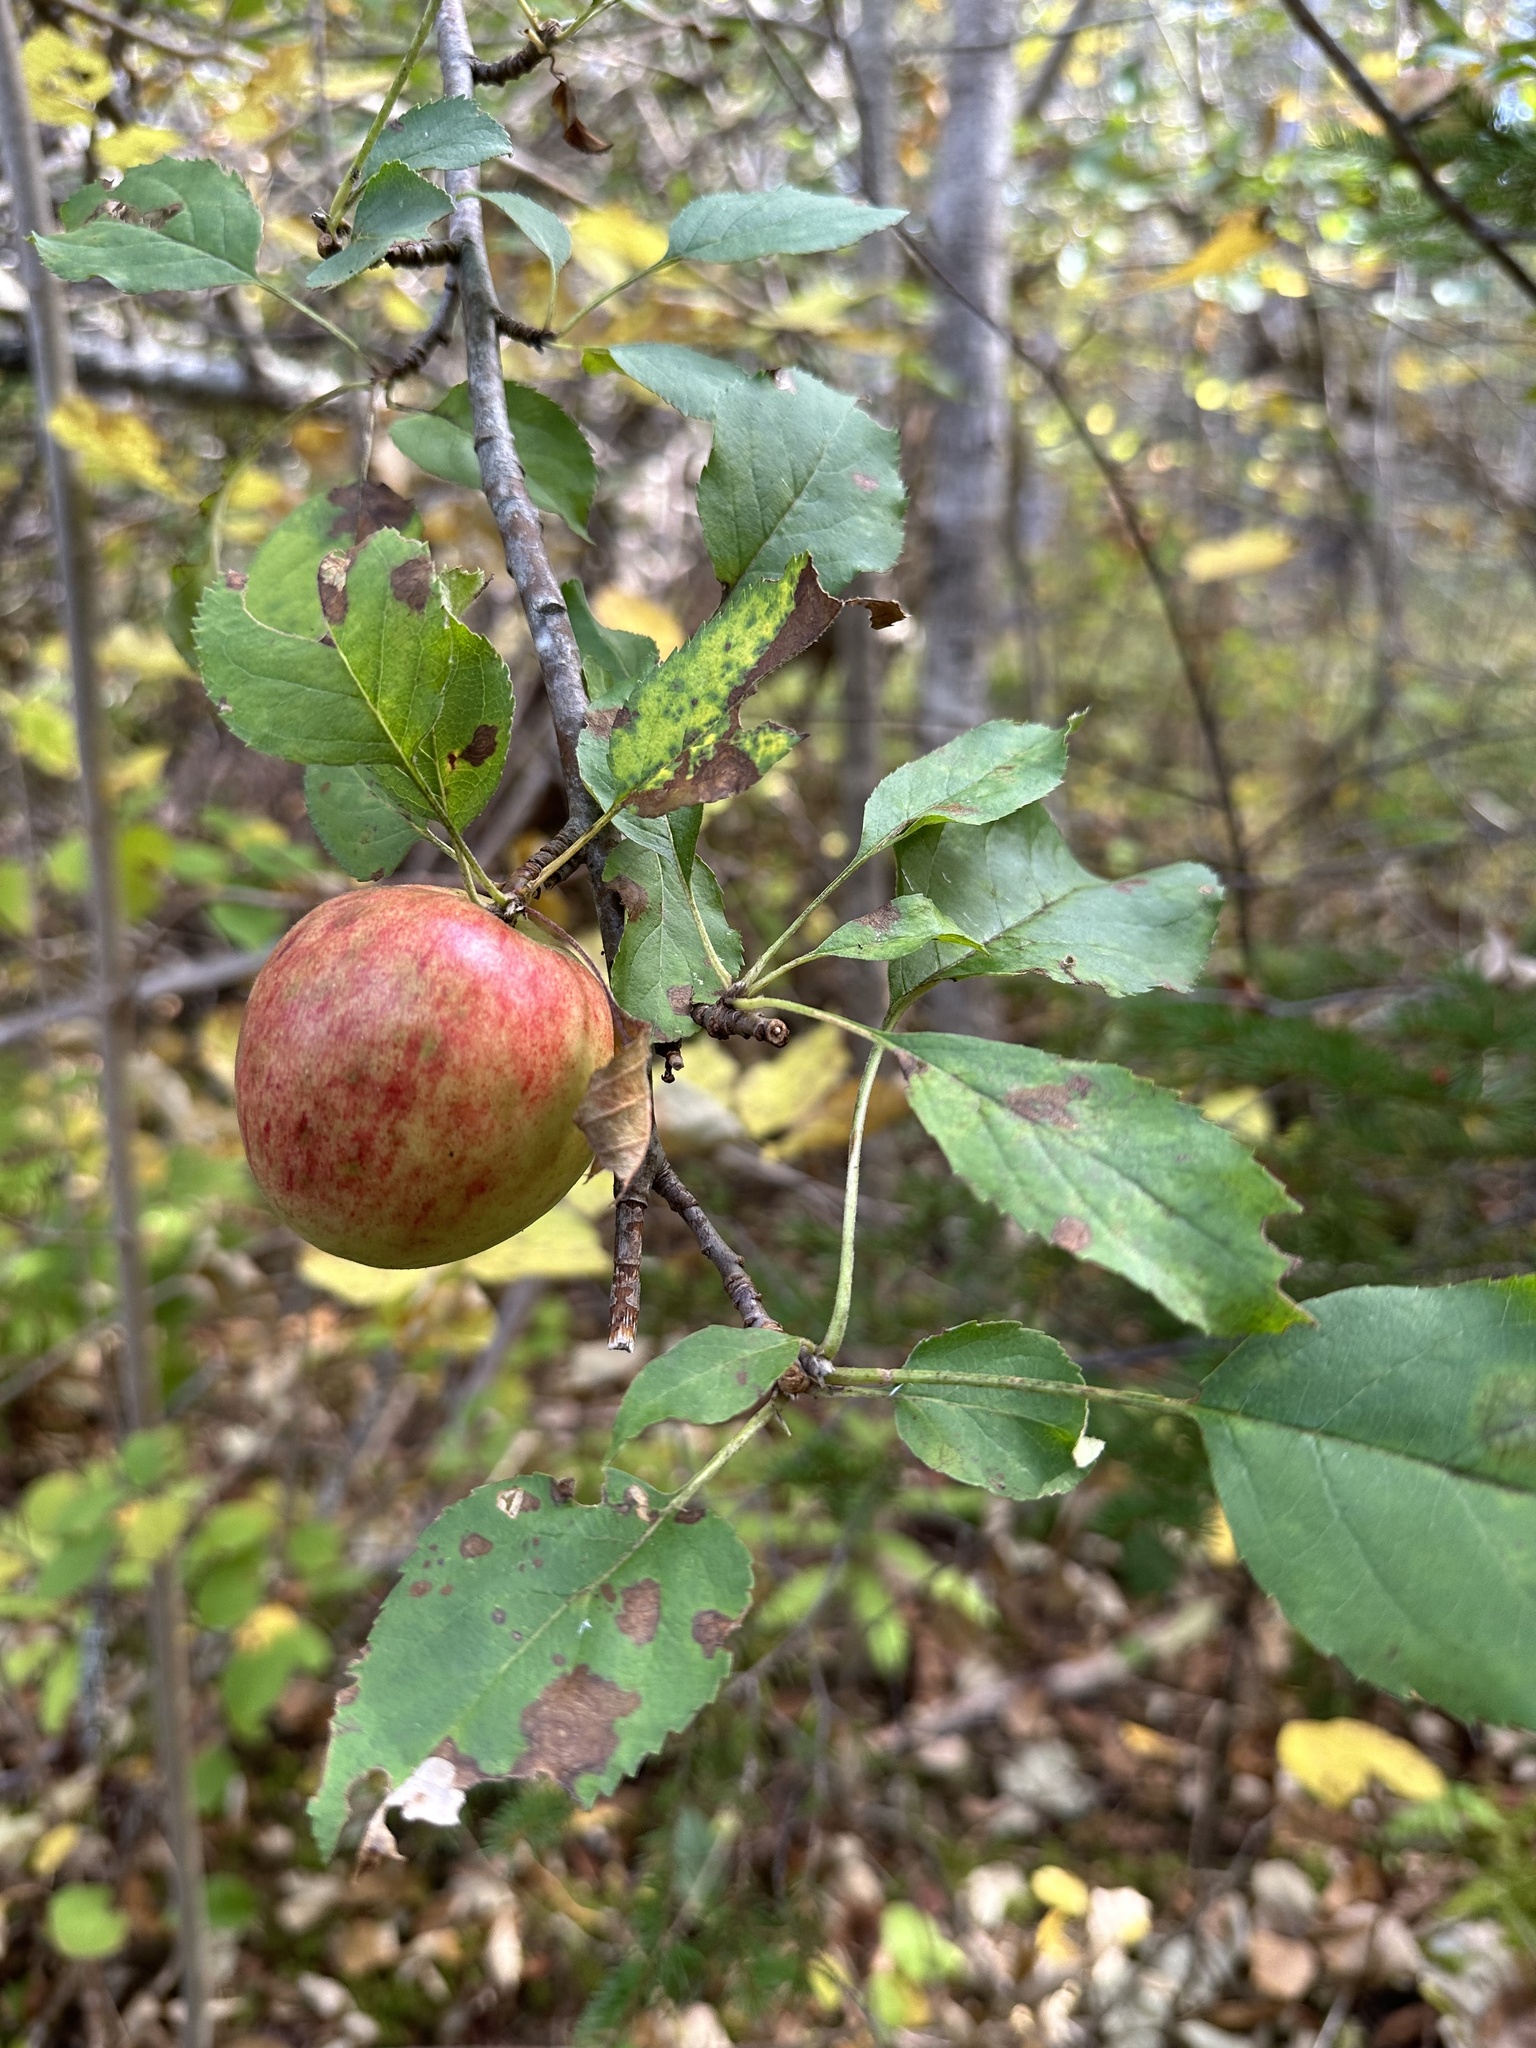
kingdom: Plantae
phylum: Tracheophyta
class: Magnoliopsida
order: Rosales
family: Rosaceae
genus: Malus
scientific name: Malus domestica
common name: Apple
